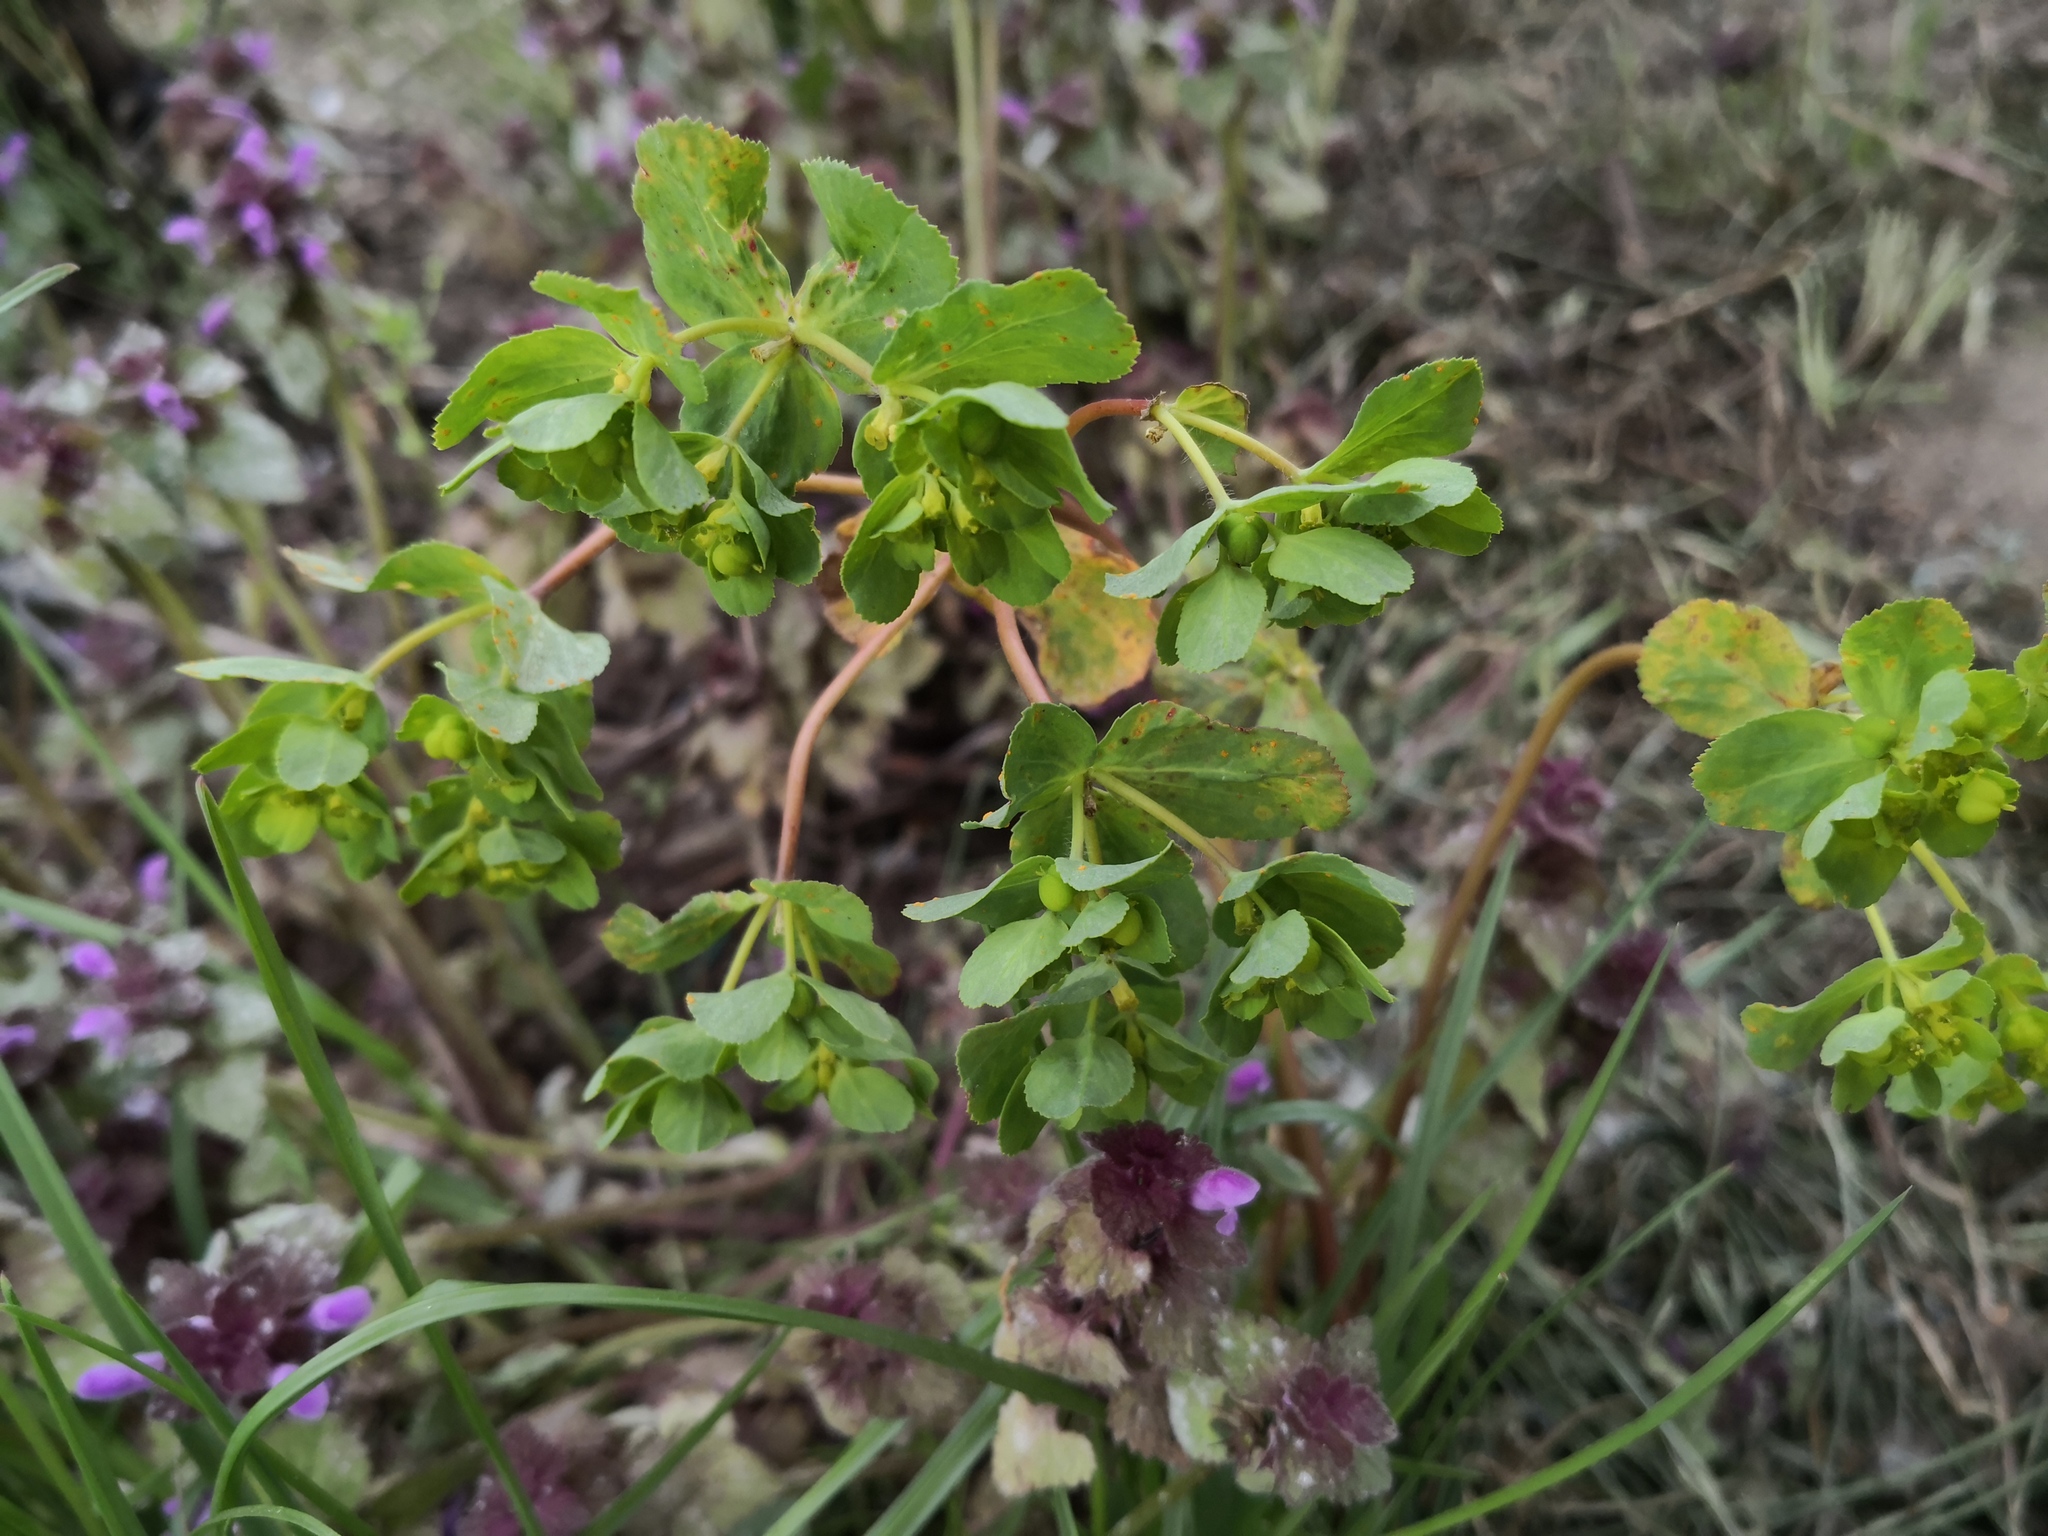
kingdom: Plantae
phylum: Tracheophyta
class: Magnoliopsida
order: Malpighiales
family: Euphorbiaceae
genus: Euphorbia
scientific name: Euphorbia helioscopia
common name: Sun spurge
